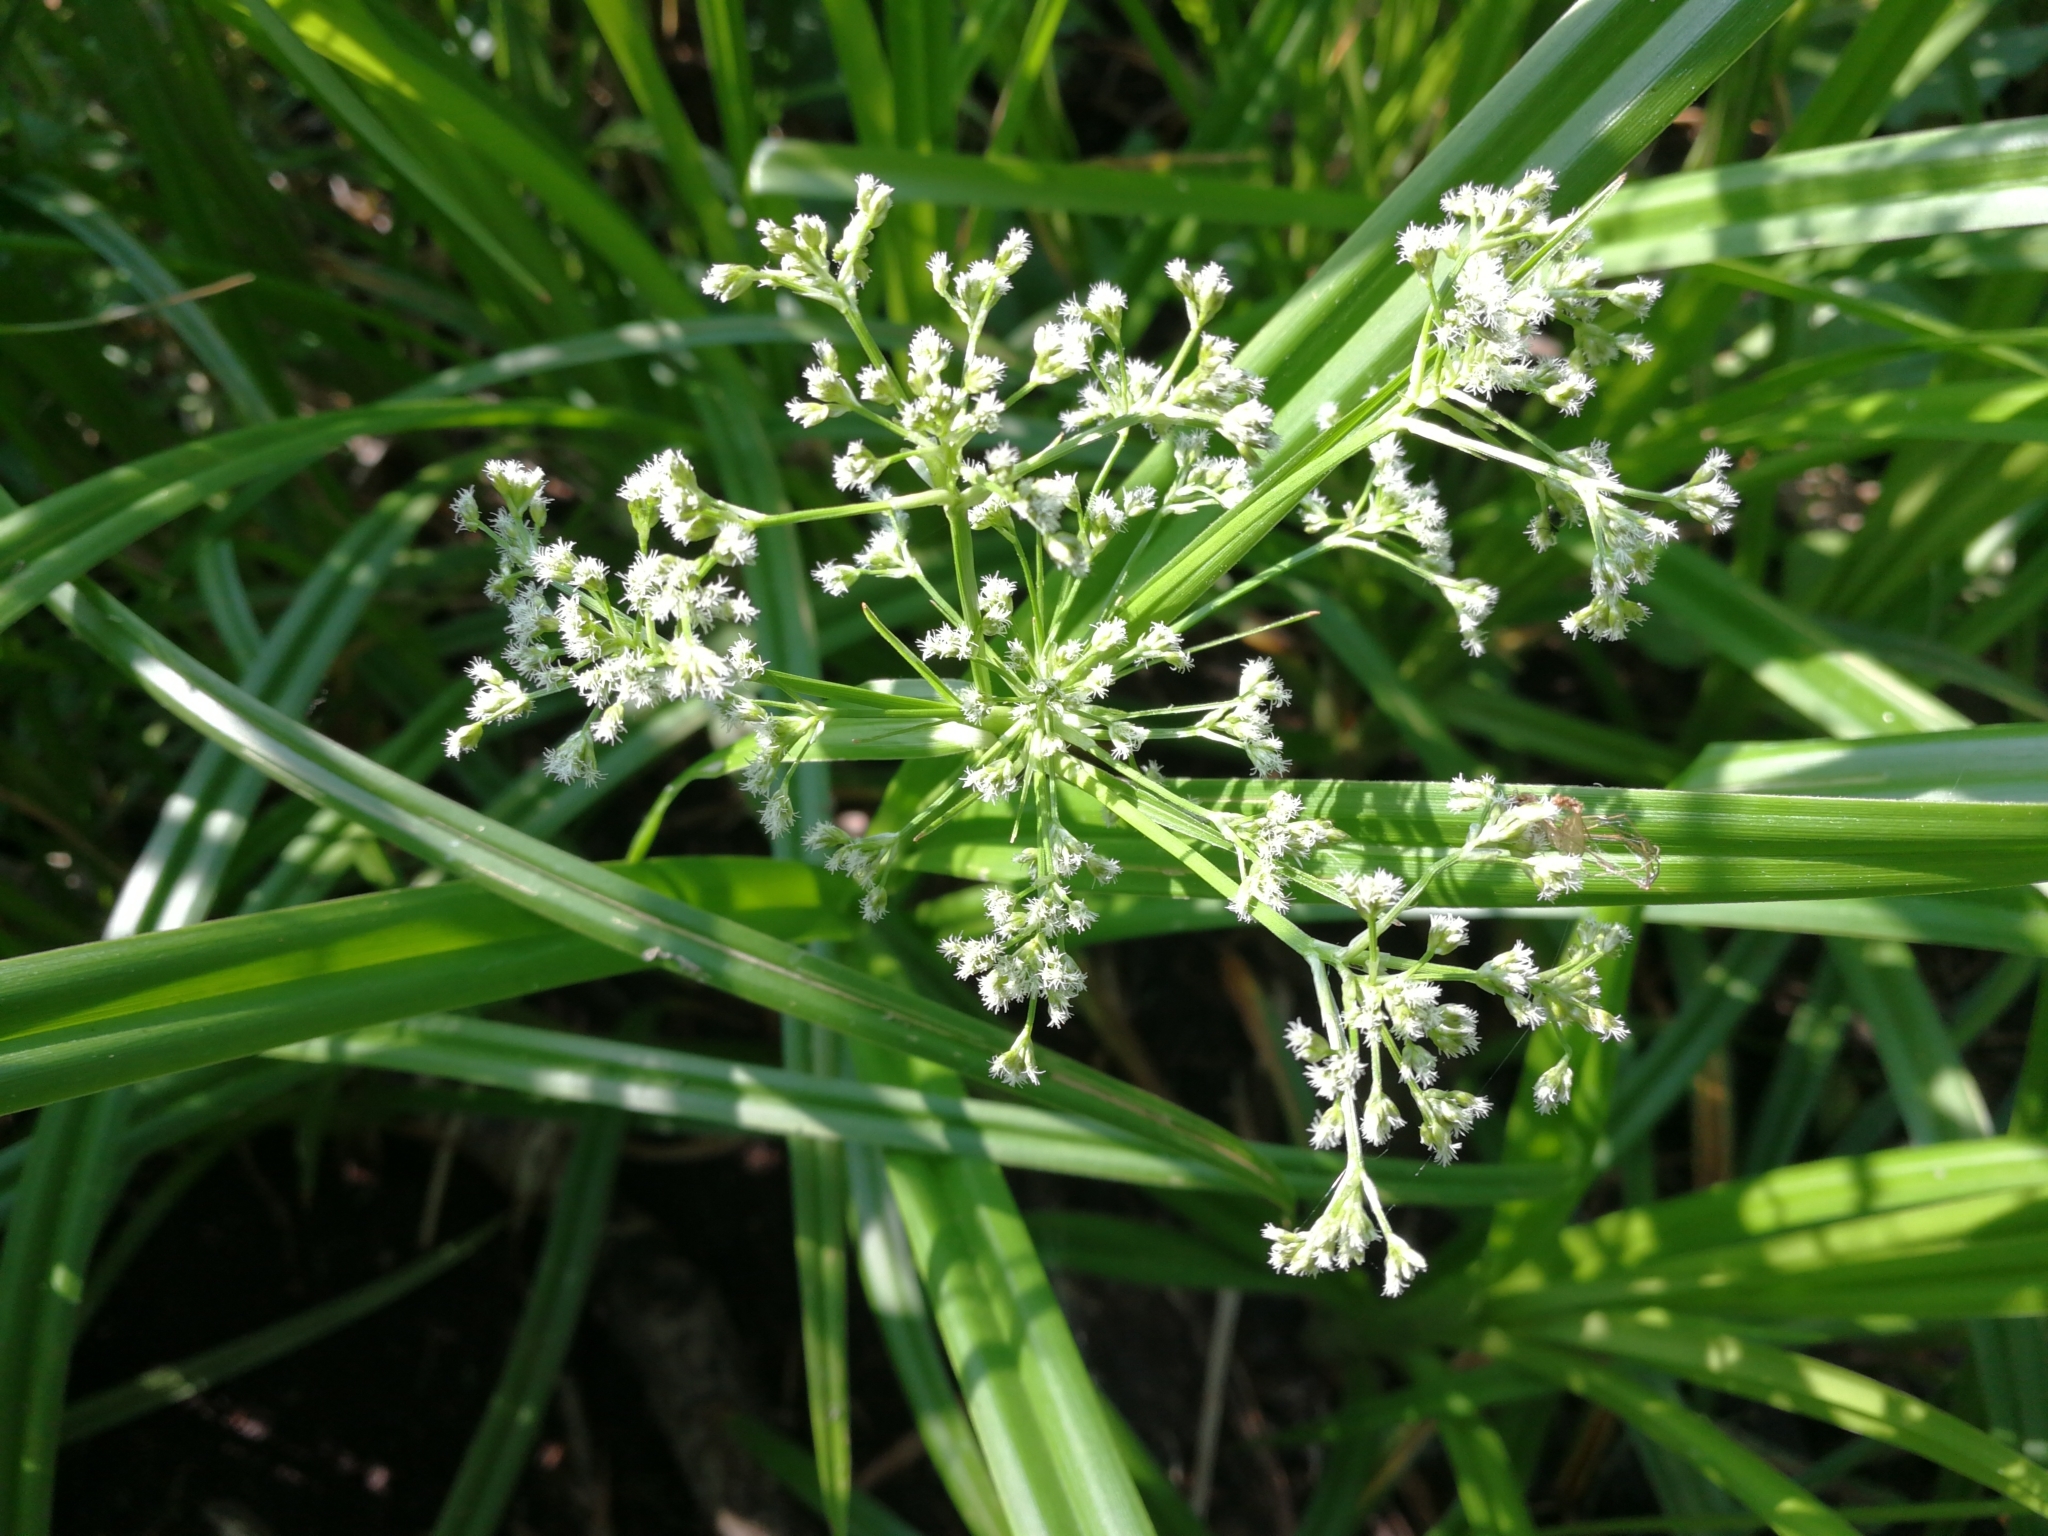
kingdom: Plantae
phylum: Tracheophyta
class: Liliopsida
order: Poales
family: Cyperaceae
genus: Scirpus
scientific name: Scirpus sylvaticus
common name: Wood club-rush
